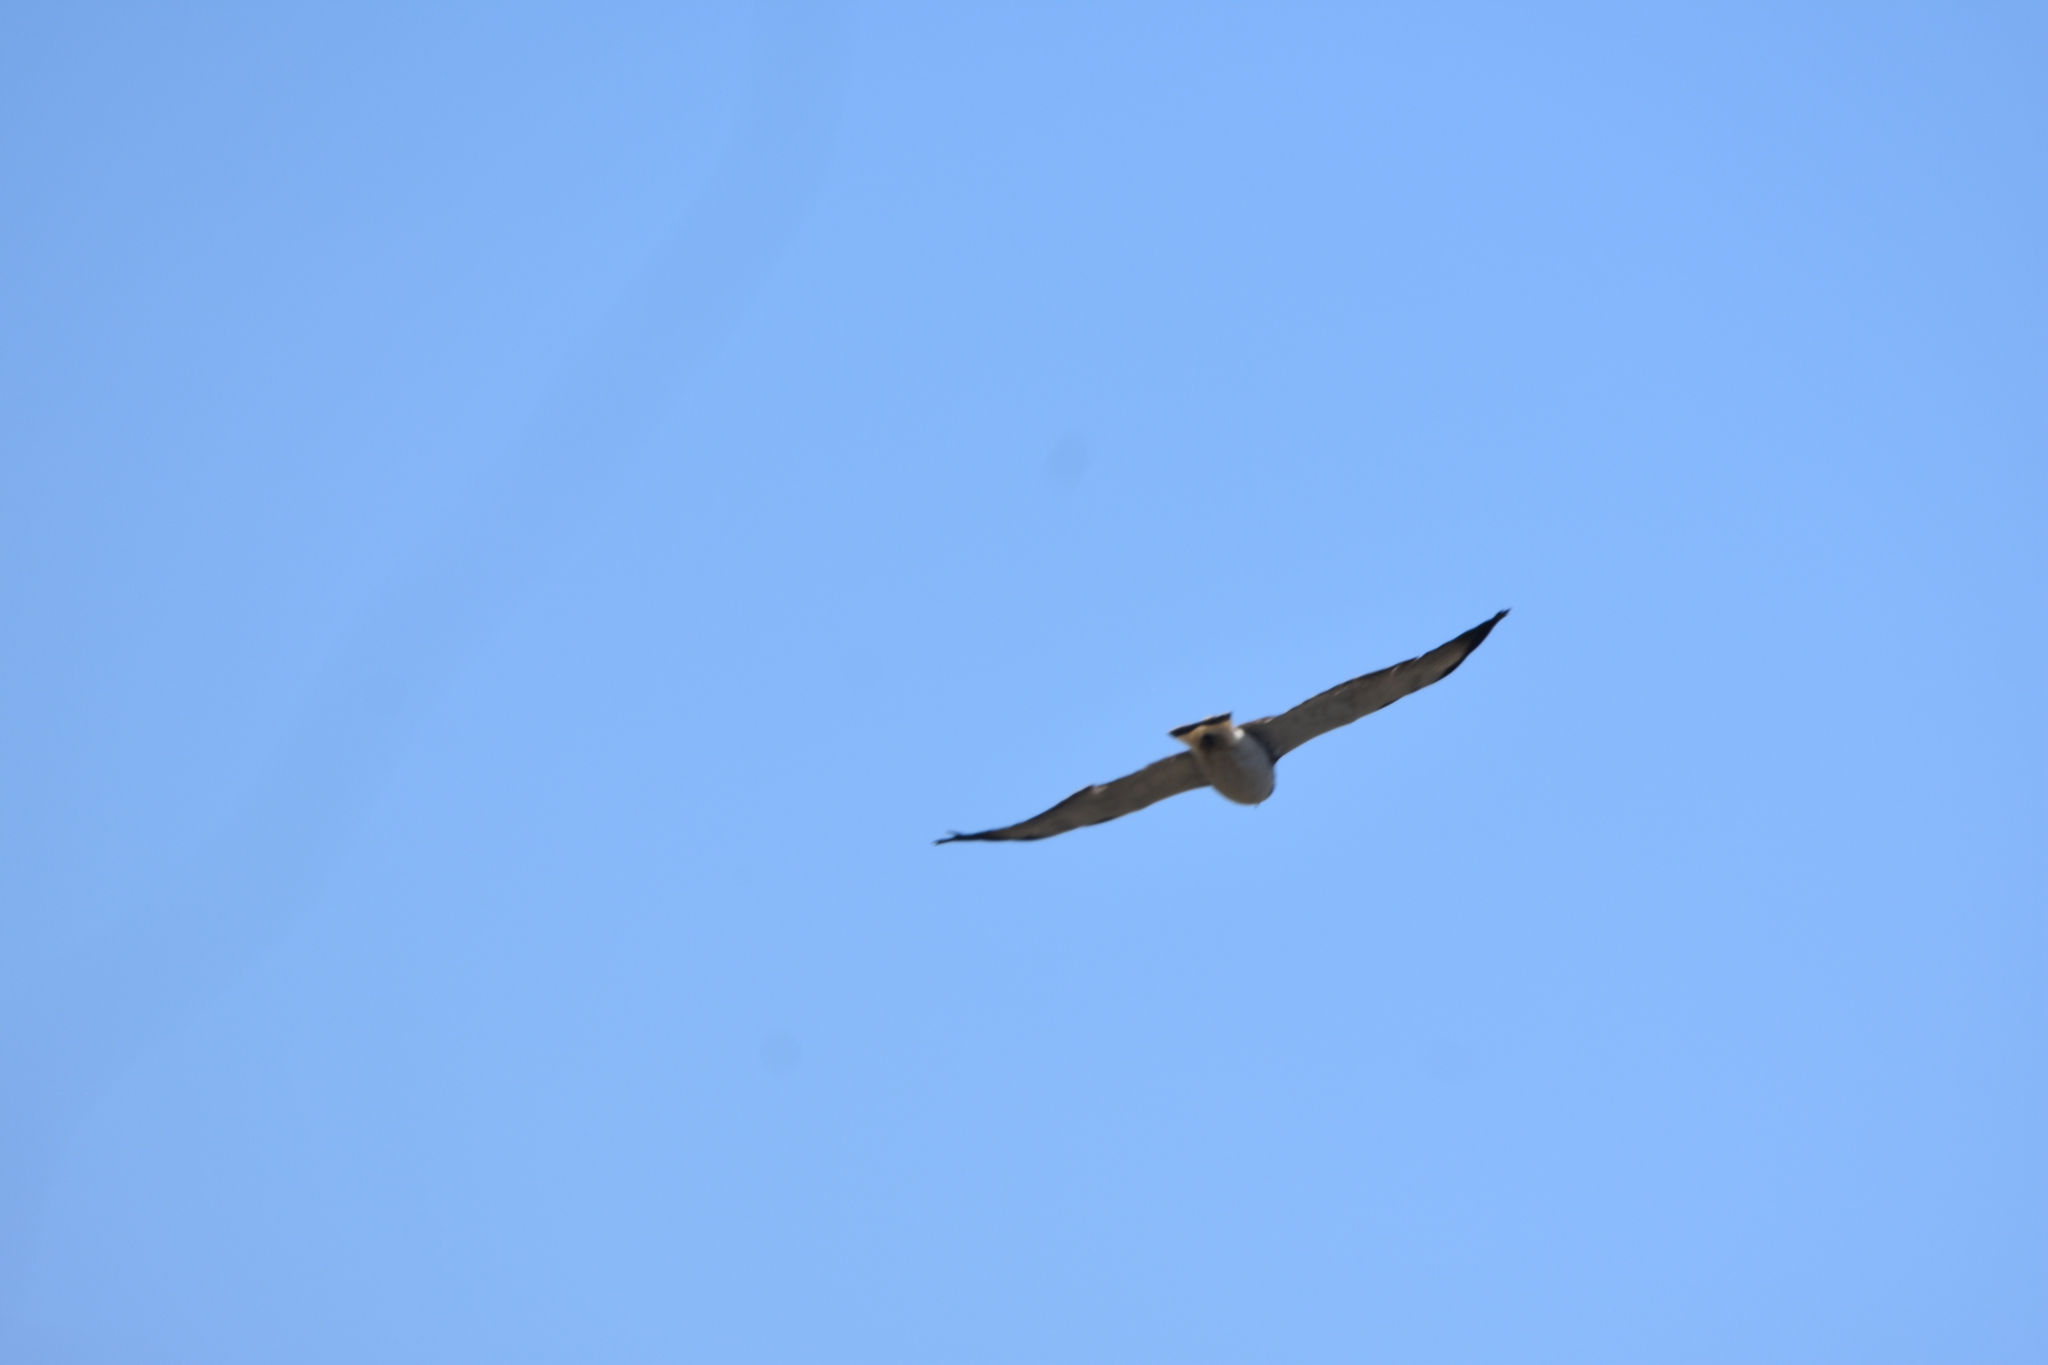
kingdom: Animalia
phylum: Chordata
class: Aves
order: Accipitriformes
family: Accipitridae
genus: Buteo
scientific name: Buteo polyosoma
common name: Variable hawk
